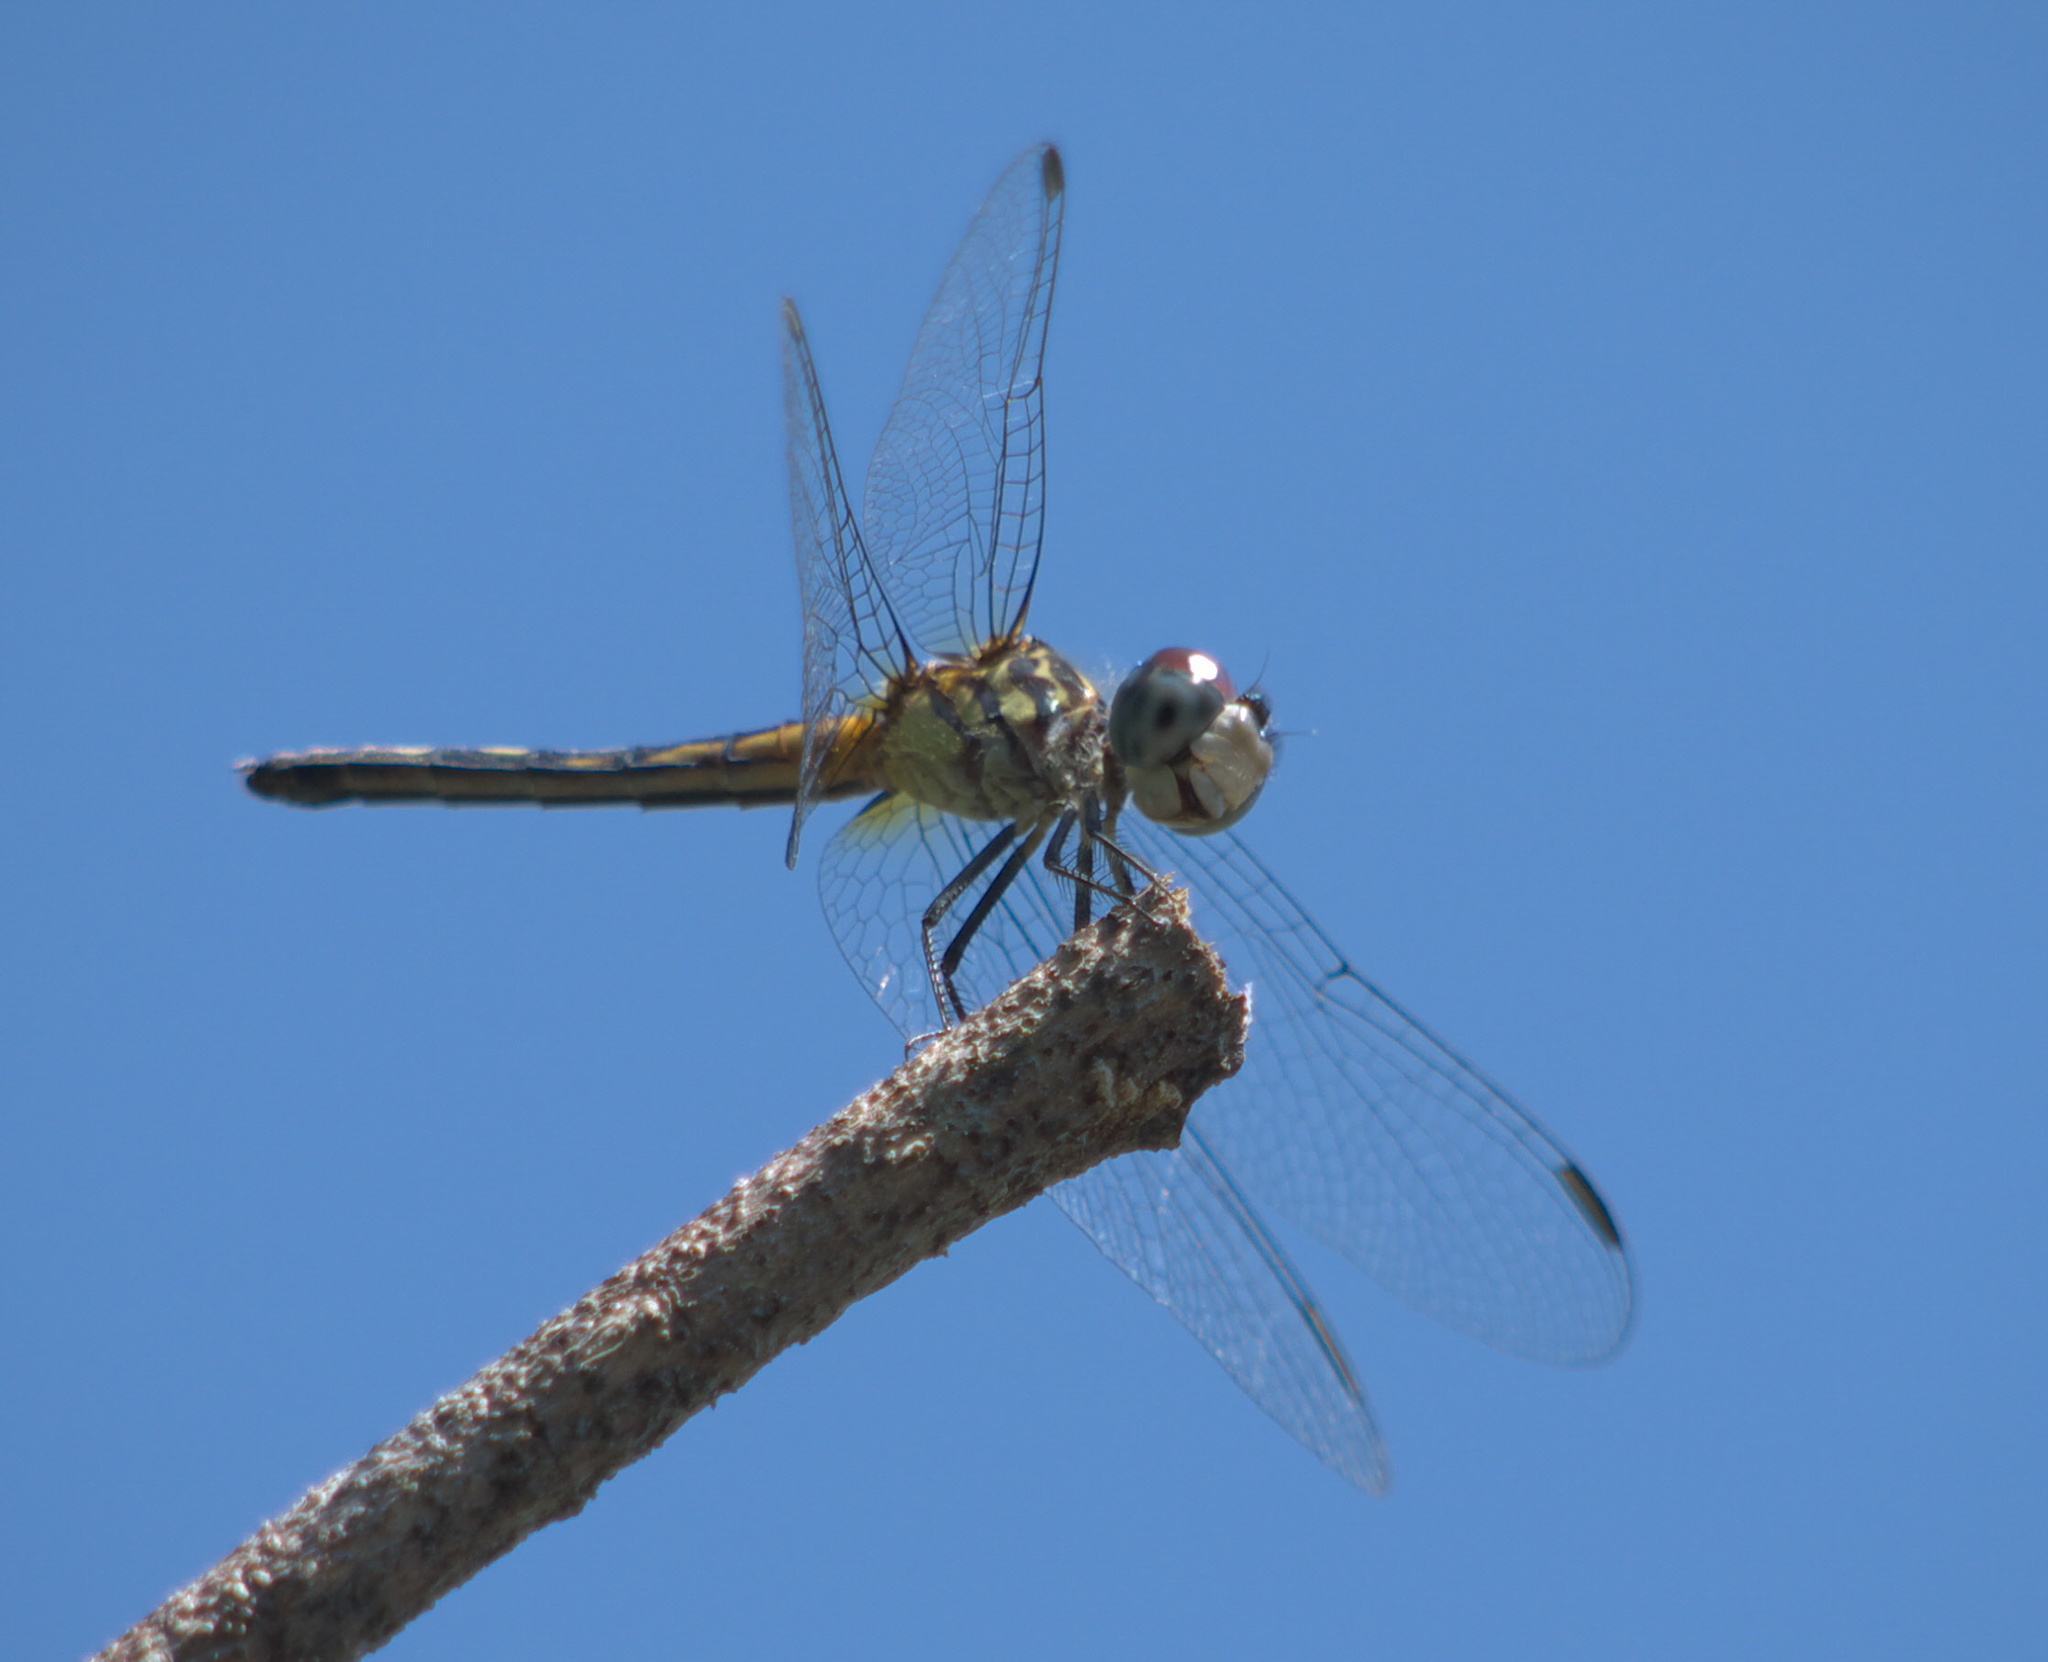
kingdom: Animalia
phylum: Arthropoda
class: Insecta
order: Odonata
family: Libellulidae
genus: Pachydiplax
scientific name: Pachydiplax longipennis
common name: Blue dasher
